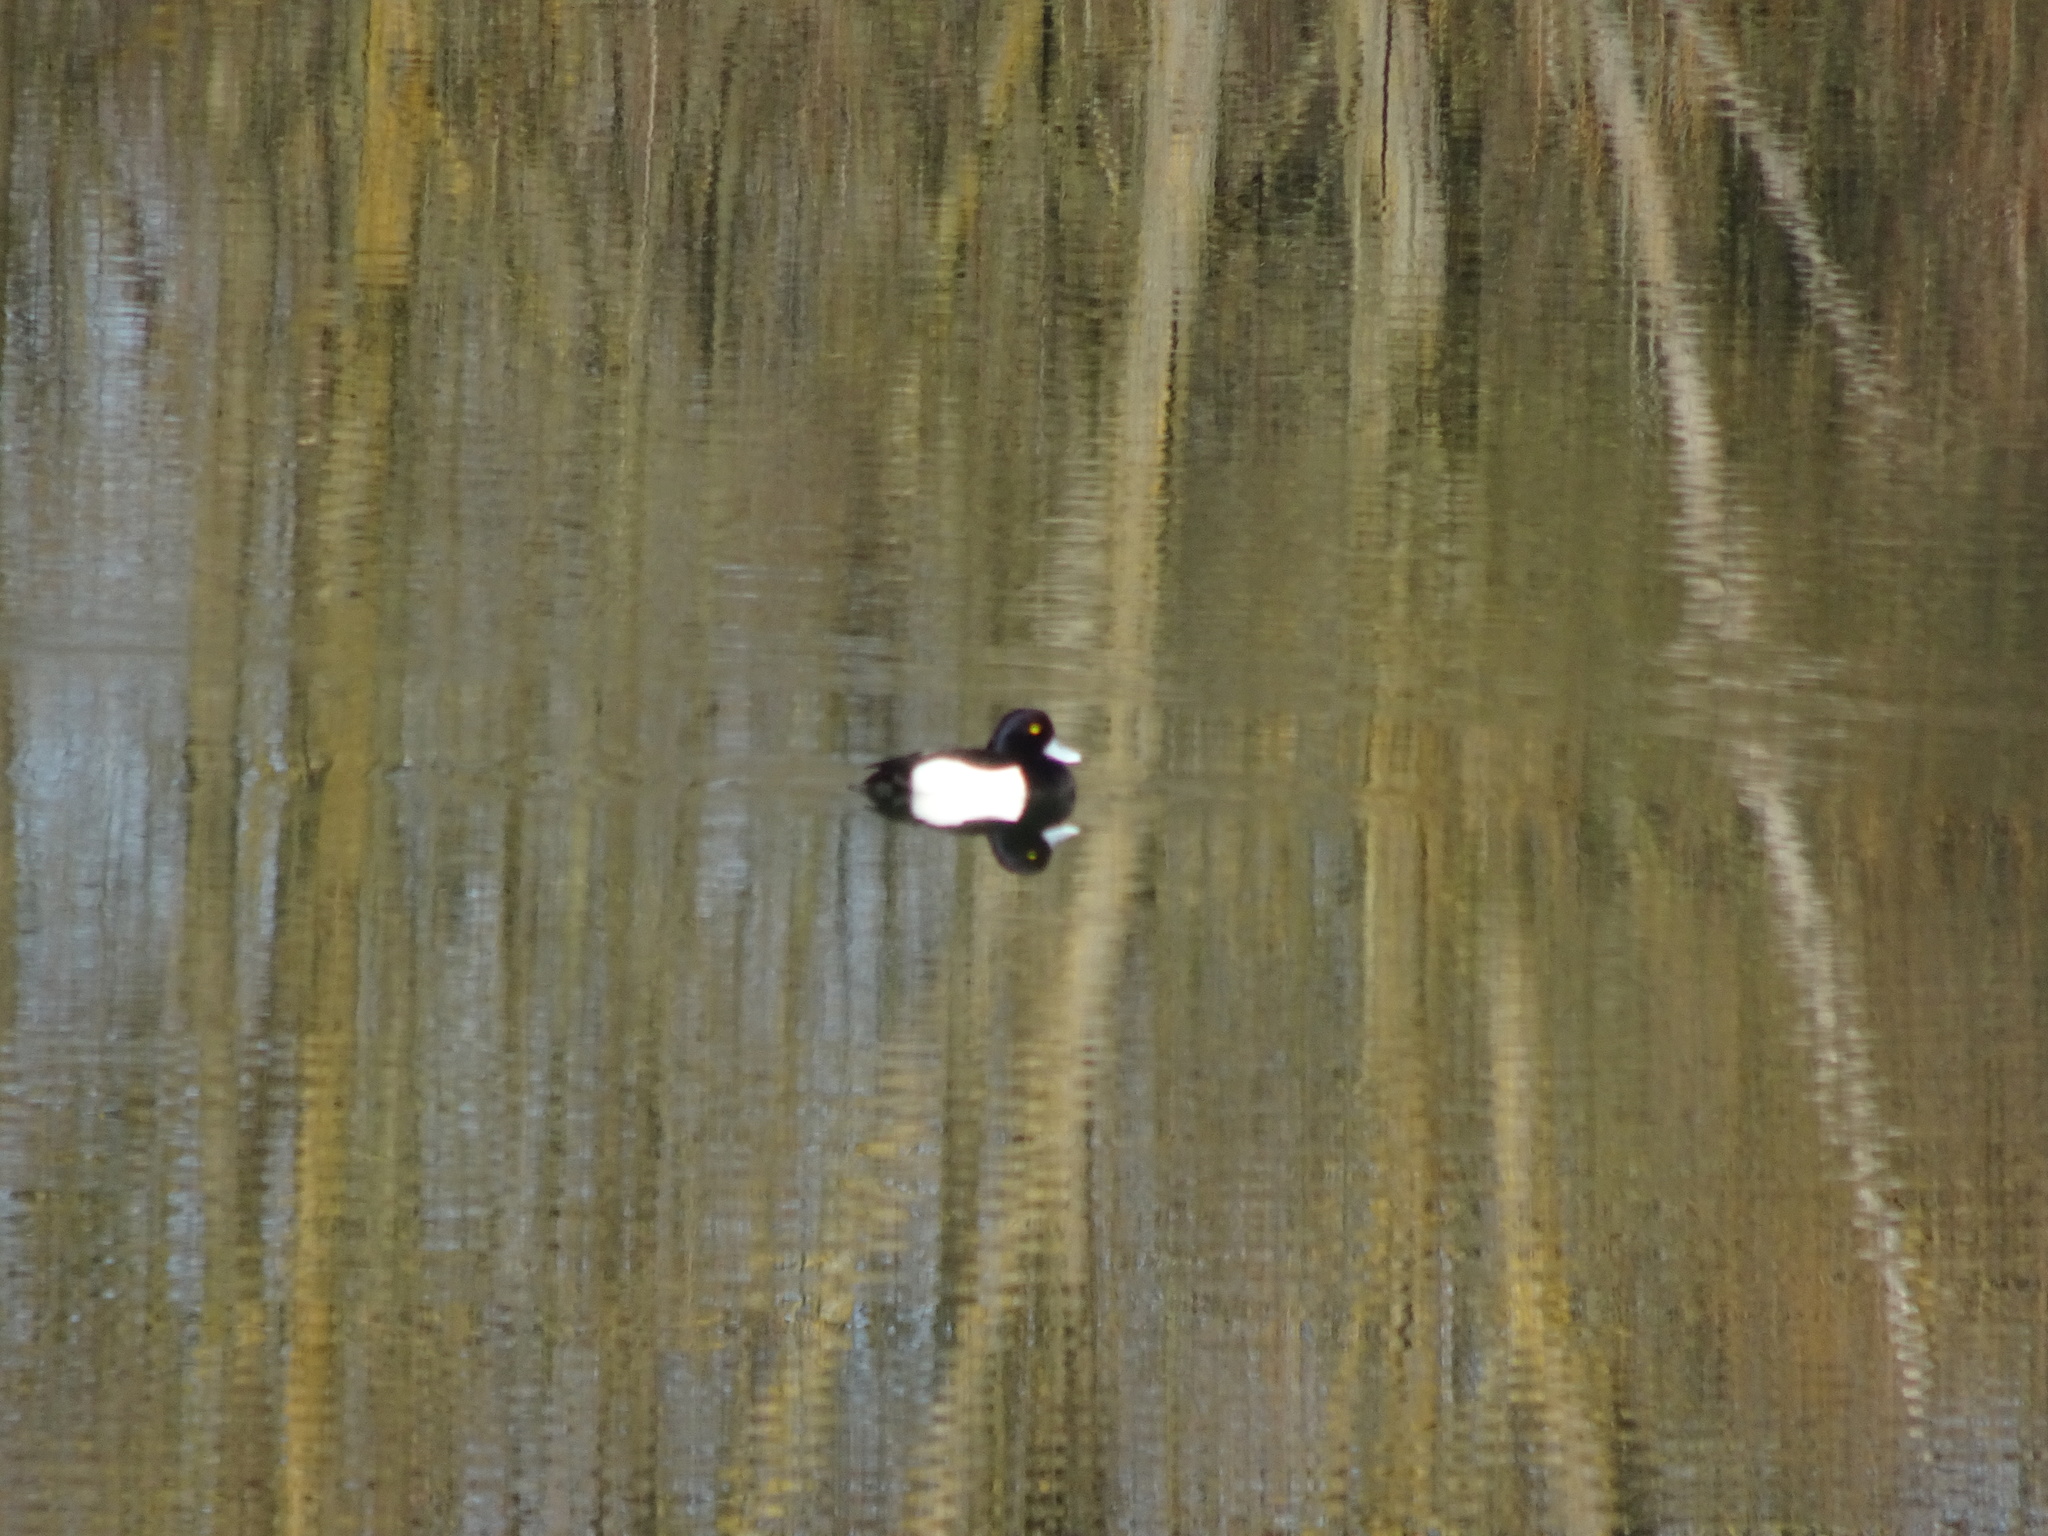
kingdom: Animalia
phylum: Chordata
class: Aves
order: Anseriformes
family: Anatidae
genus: Aythya
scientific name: Aythya fuligula
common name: Tufted duck
